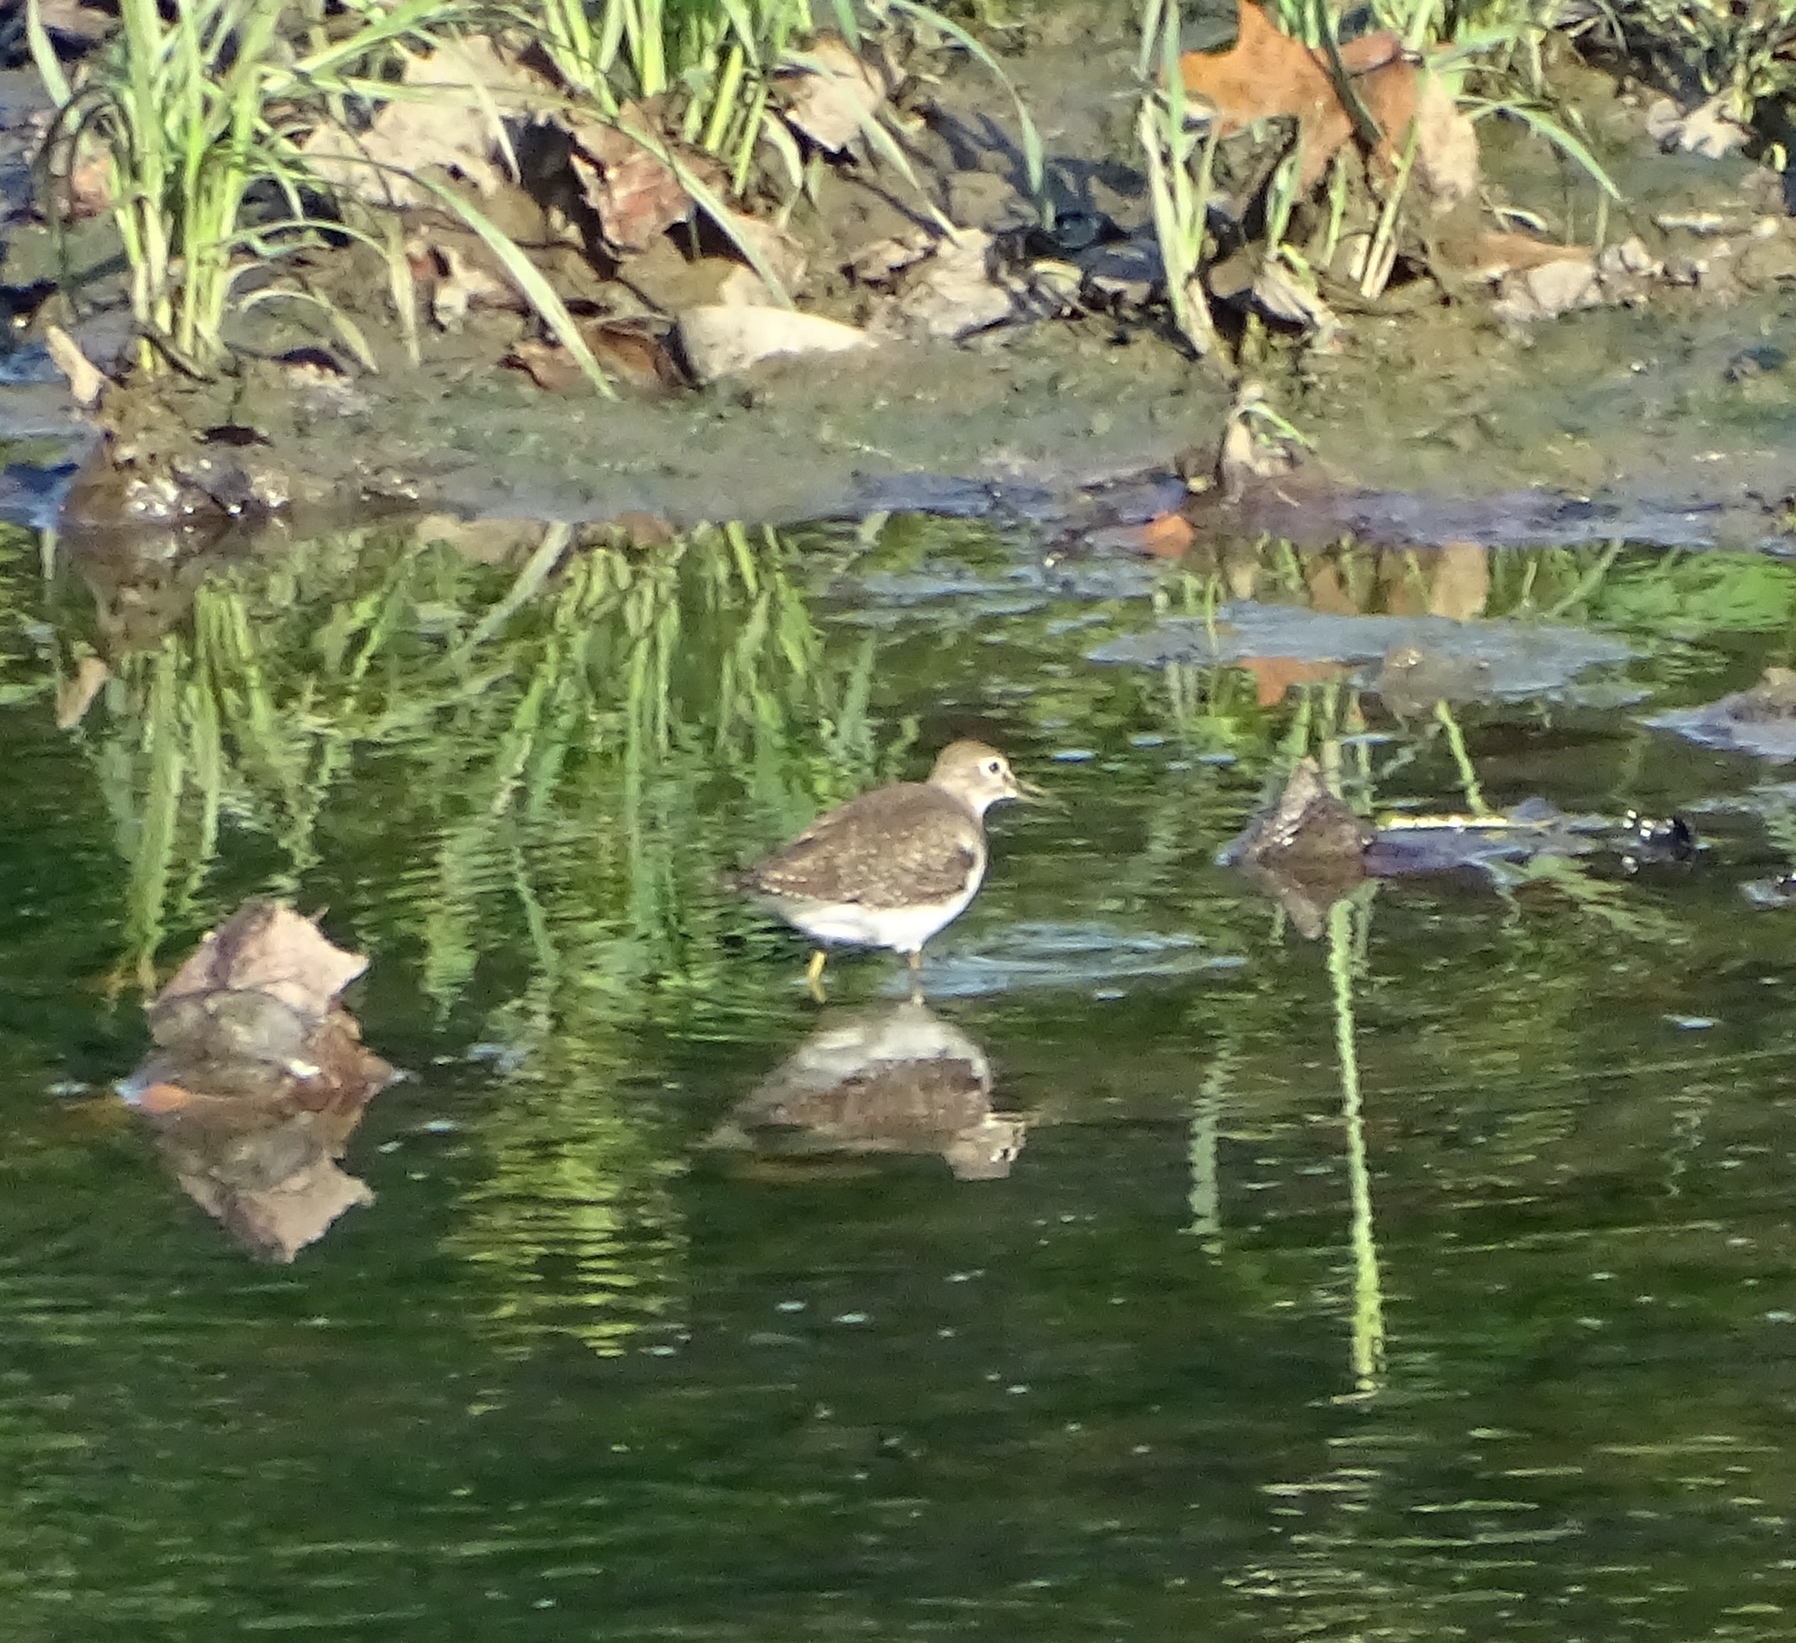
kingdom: Animalia
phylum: Chordata
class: Aves
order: Charadriiformes
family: Scolopacidae
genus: Tringa
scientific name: Tringa solitaria
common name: Solitary sandpiper
